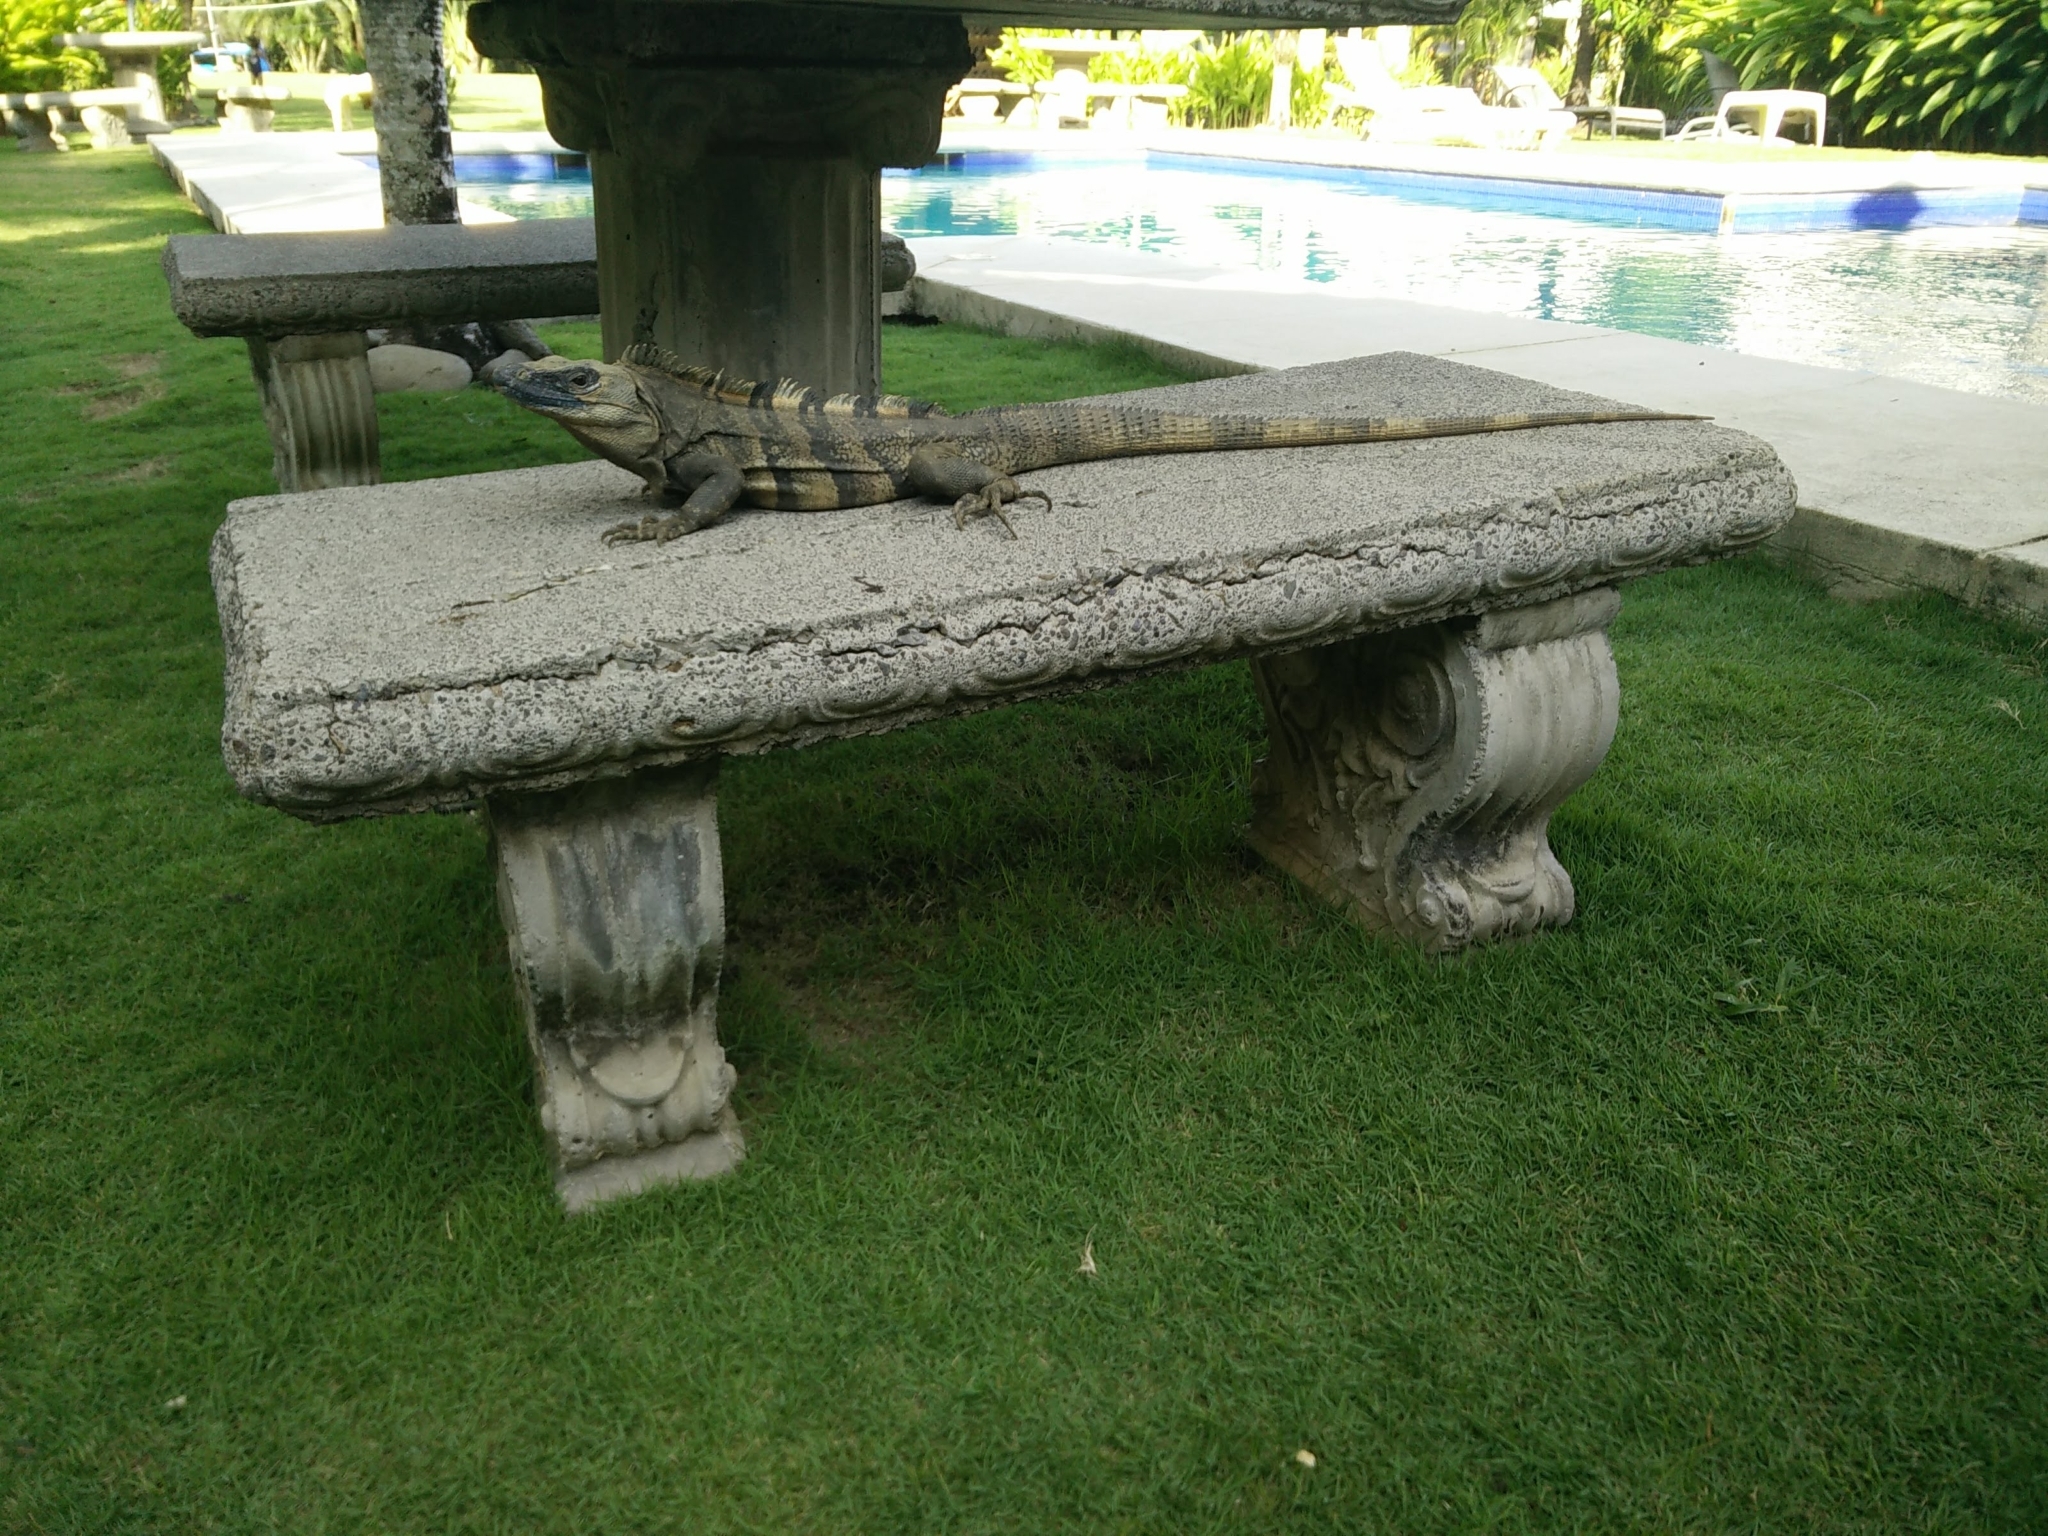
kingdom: Animalia
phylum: Chordata
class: Squamata
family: Iguanidae
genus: Ctenosaura
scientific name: Ctenosaura similis
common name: Black spiny-tailed iguana
